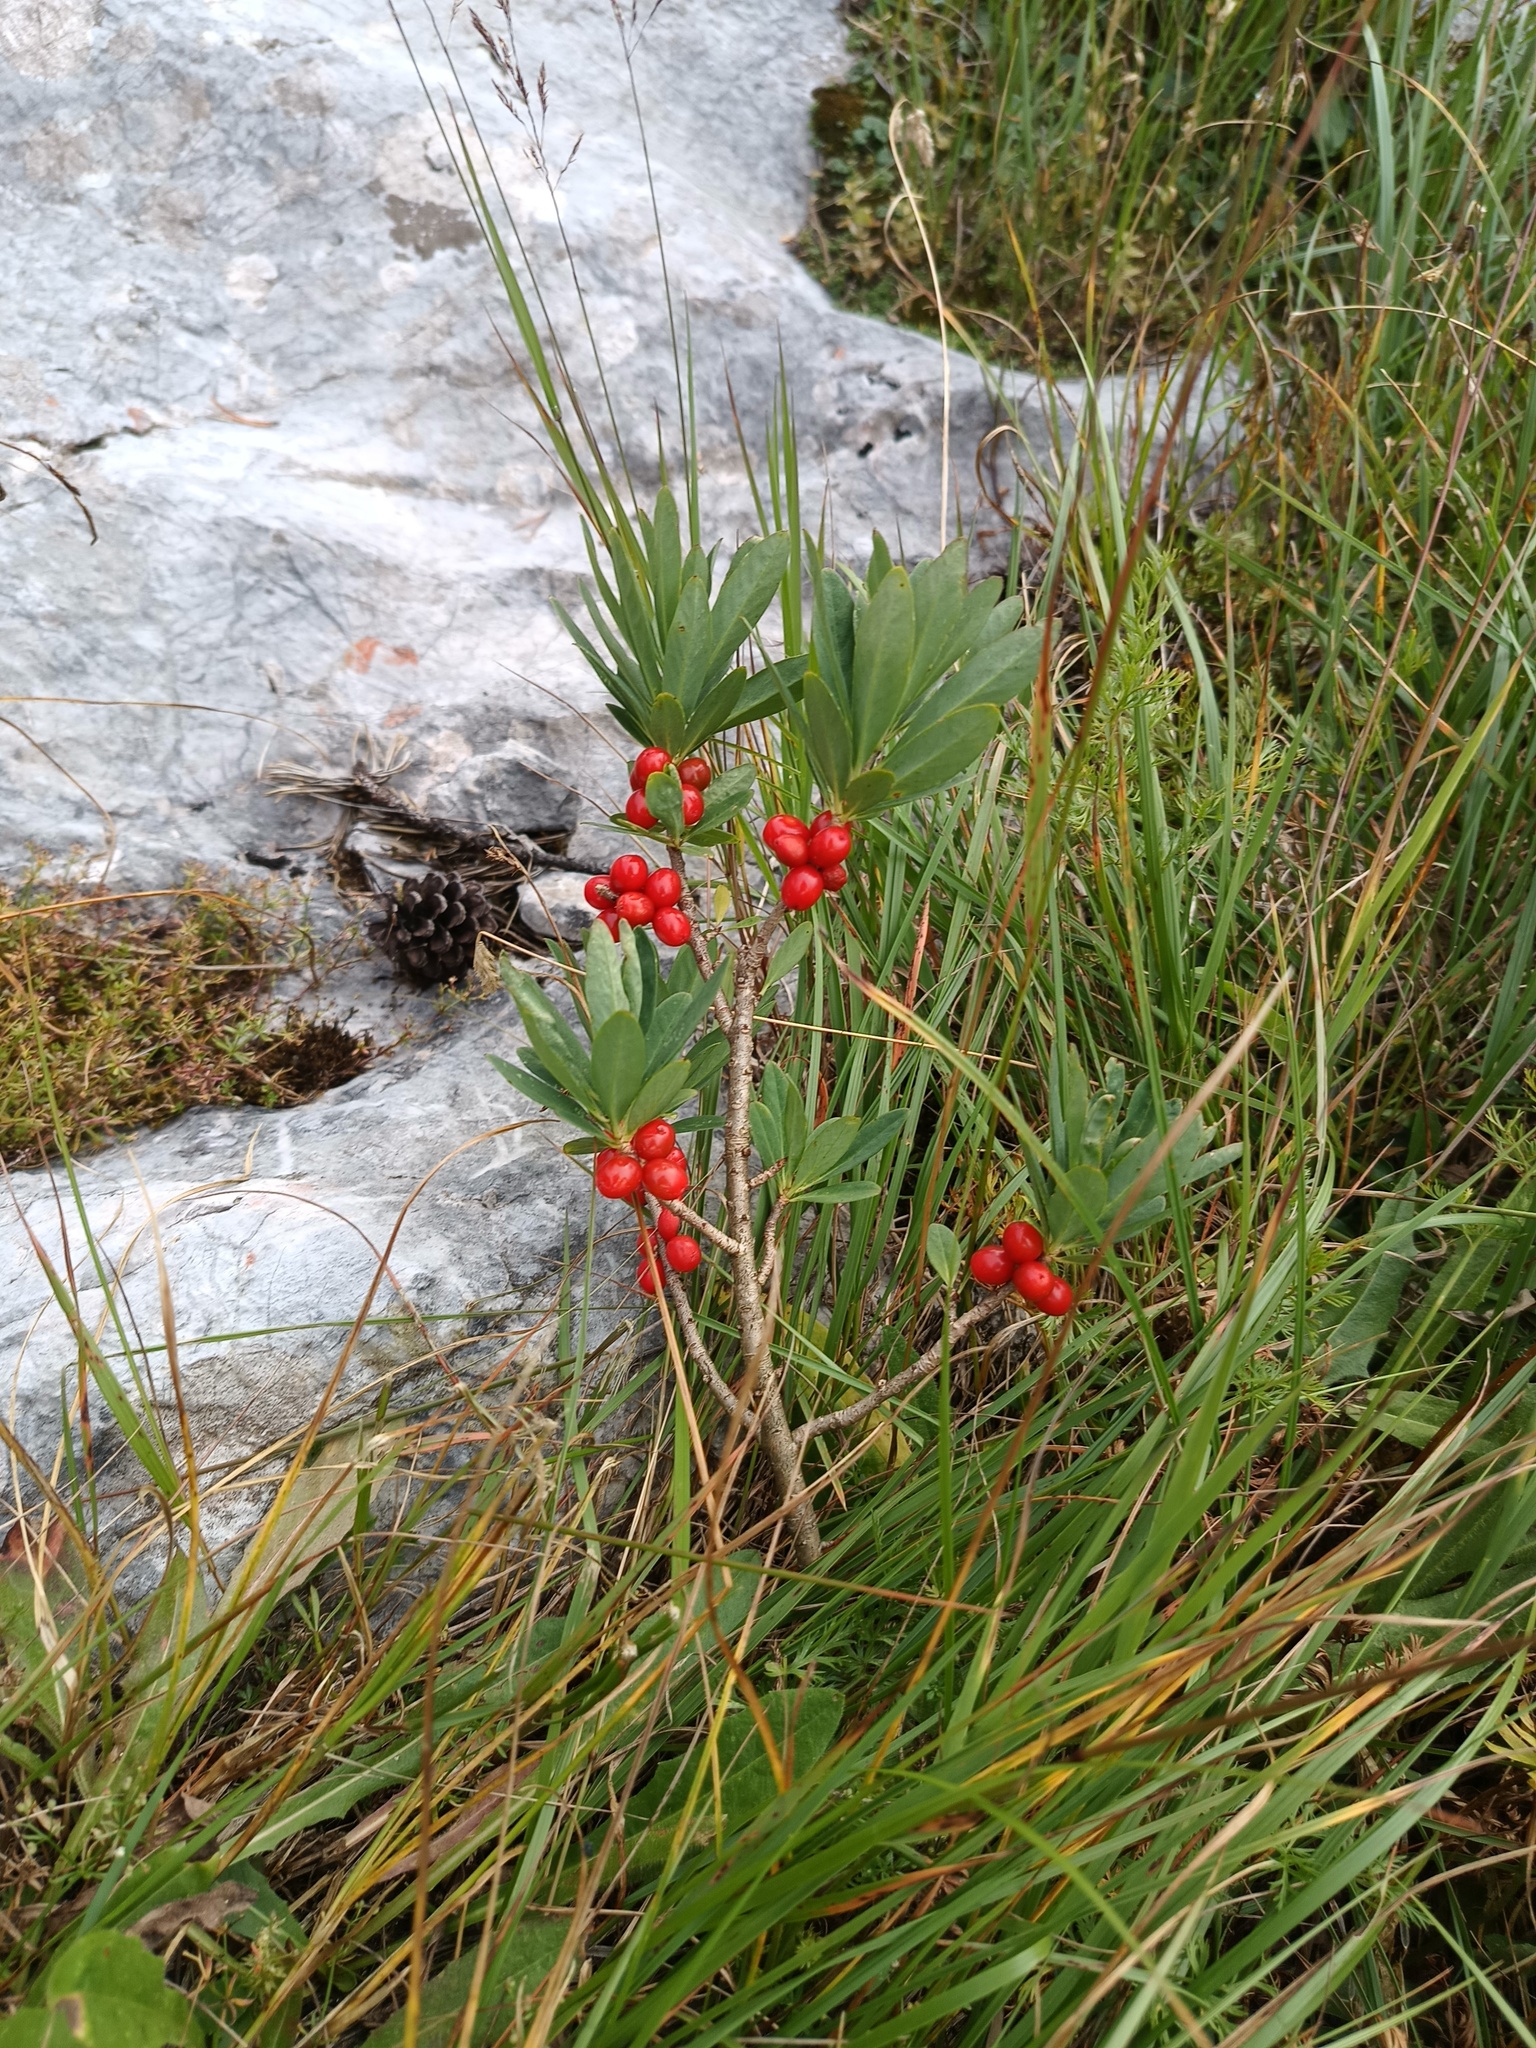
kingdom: Plantae
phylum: Tracheophyta
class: Magnoliopsida
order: Malvales
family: Thymelaeaceae
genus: Daphne
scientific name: Daphne mezereum
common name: Mezereon
